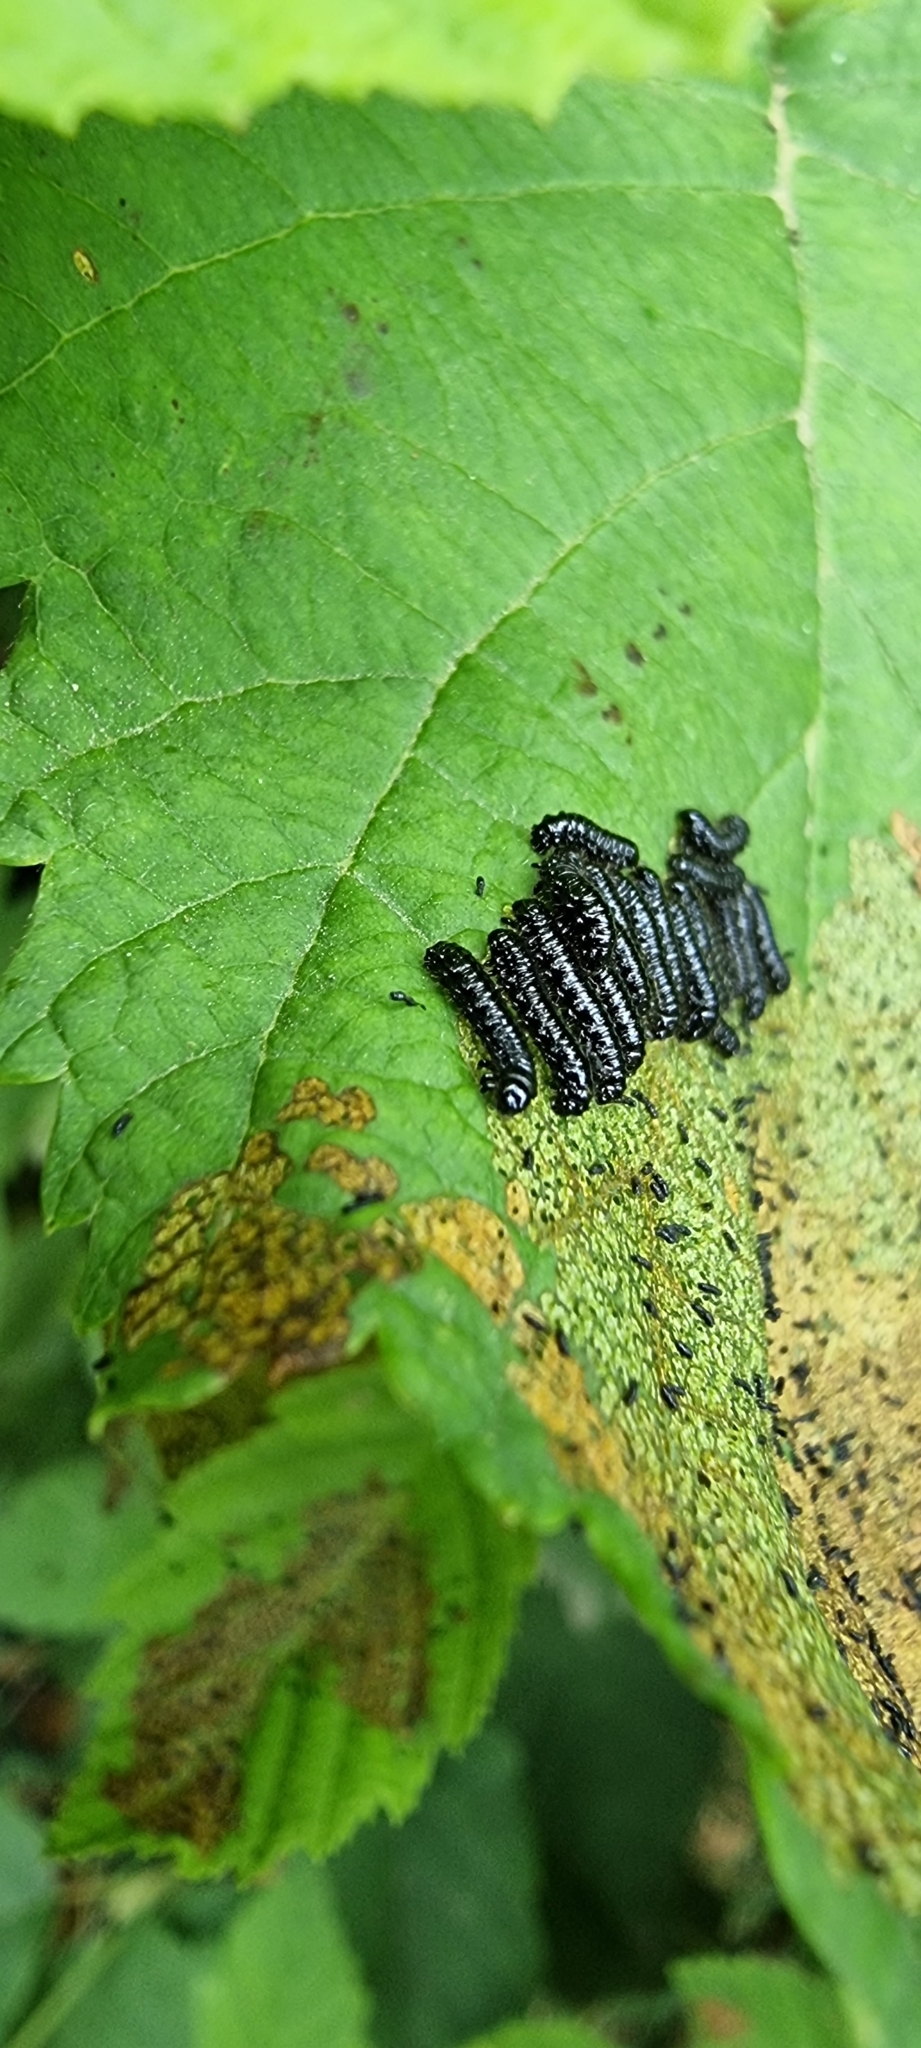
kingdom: Animalia
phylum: Arthropoda
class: Insecta
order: Coleoptera
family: Chrysomelidae
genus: Agelastica
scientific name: Agelastica alni
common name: Alder leaf beetle
